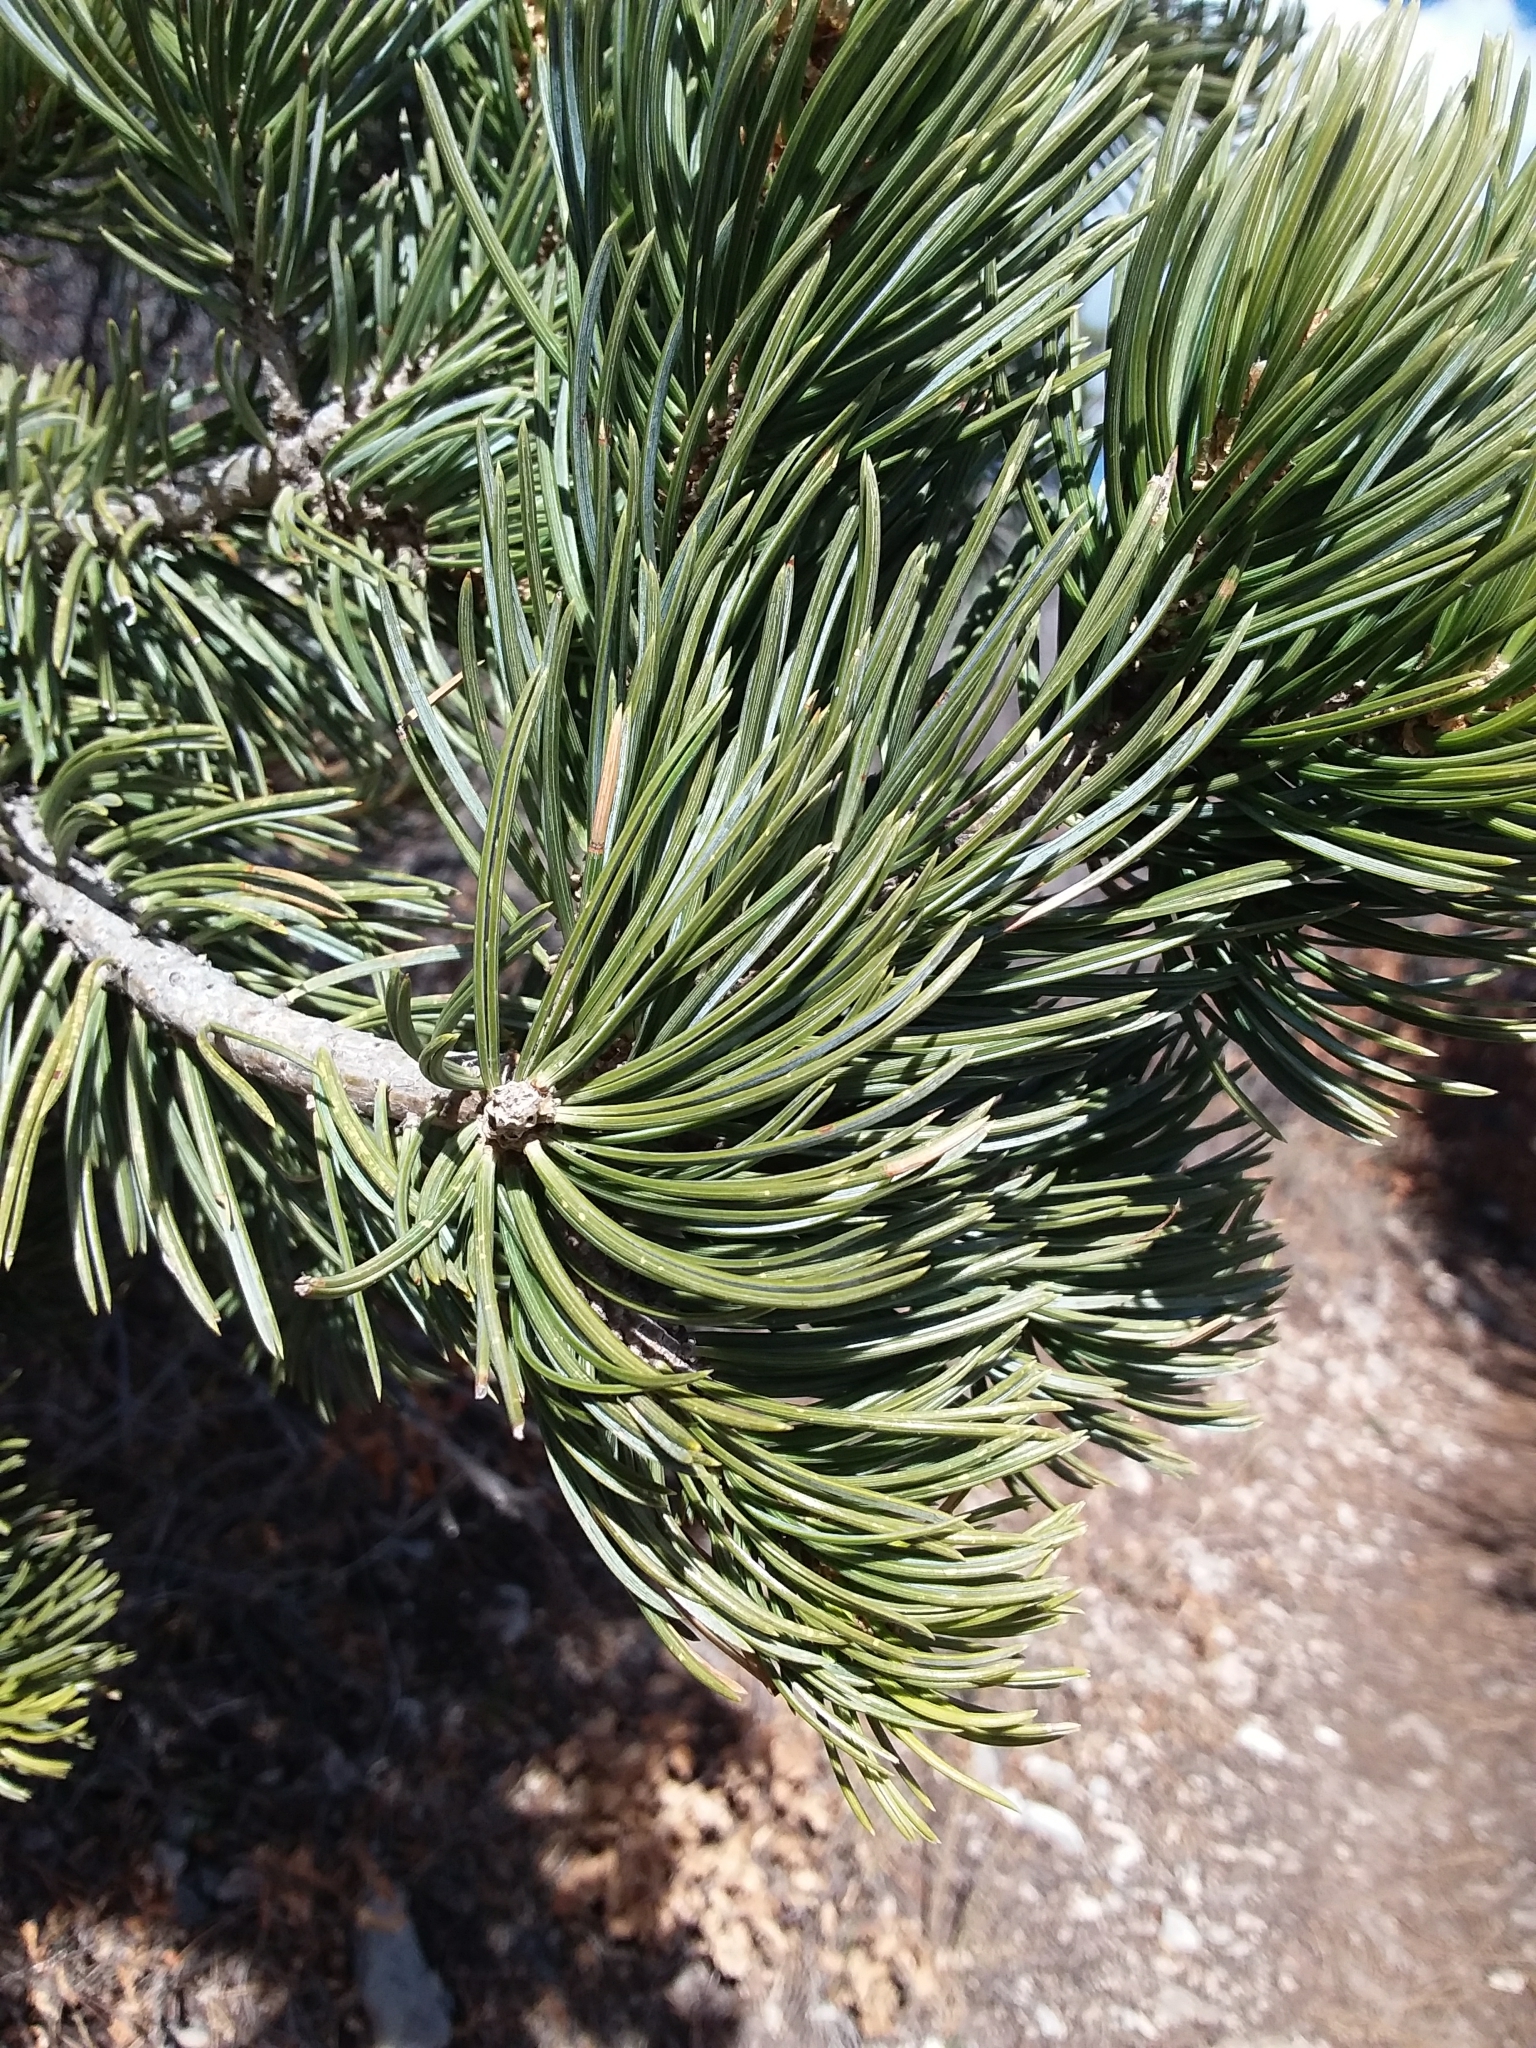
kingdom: Plantae
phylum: Tracheophyta
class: Pinopsida
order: Pinales
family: Pinaceae
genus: Pinus
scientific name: Pinus edulis
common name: Colorado pinyon
